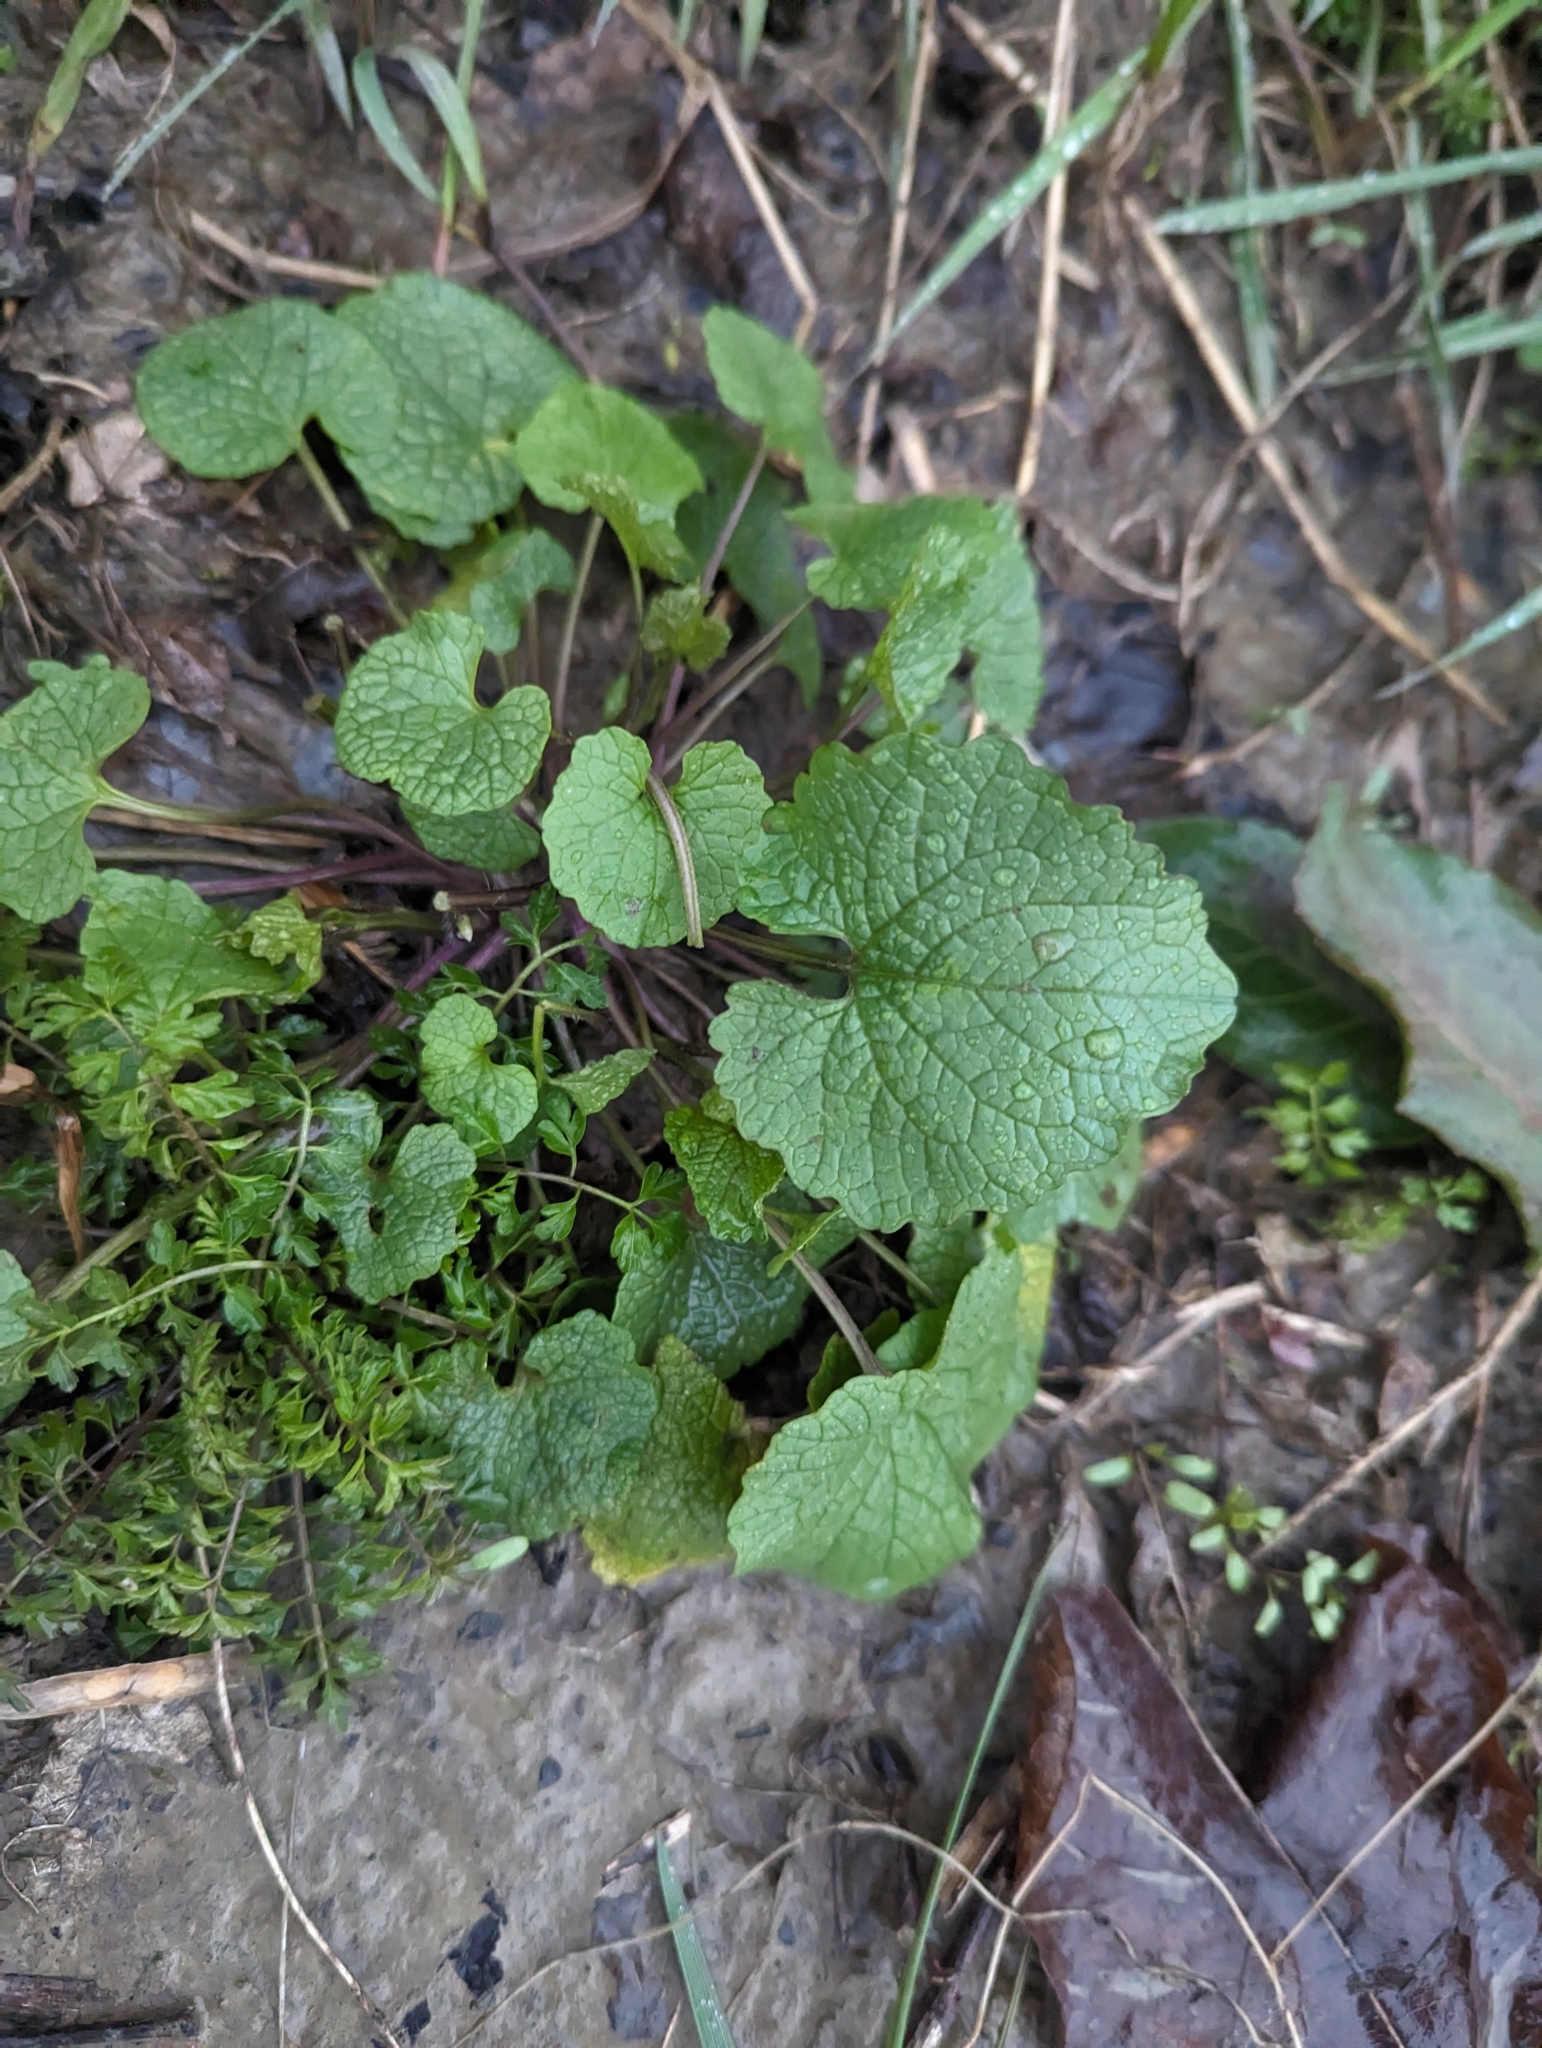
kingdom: Plantae
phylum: Tracheophyta
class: Magnoliopsida
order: Brassicales
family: Brassicaceae
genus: Alliaria
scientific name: Alliaria petiolata
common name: Garlic mustard
